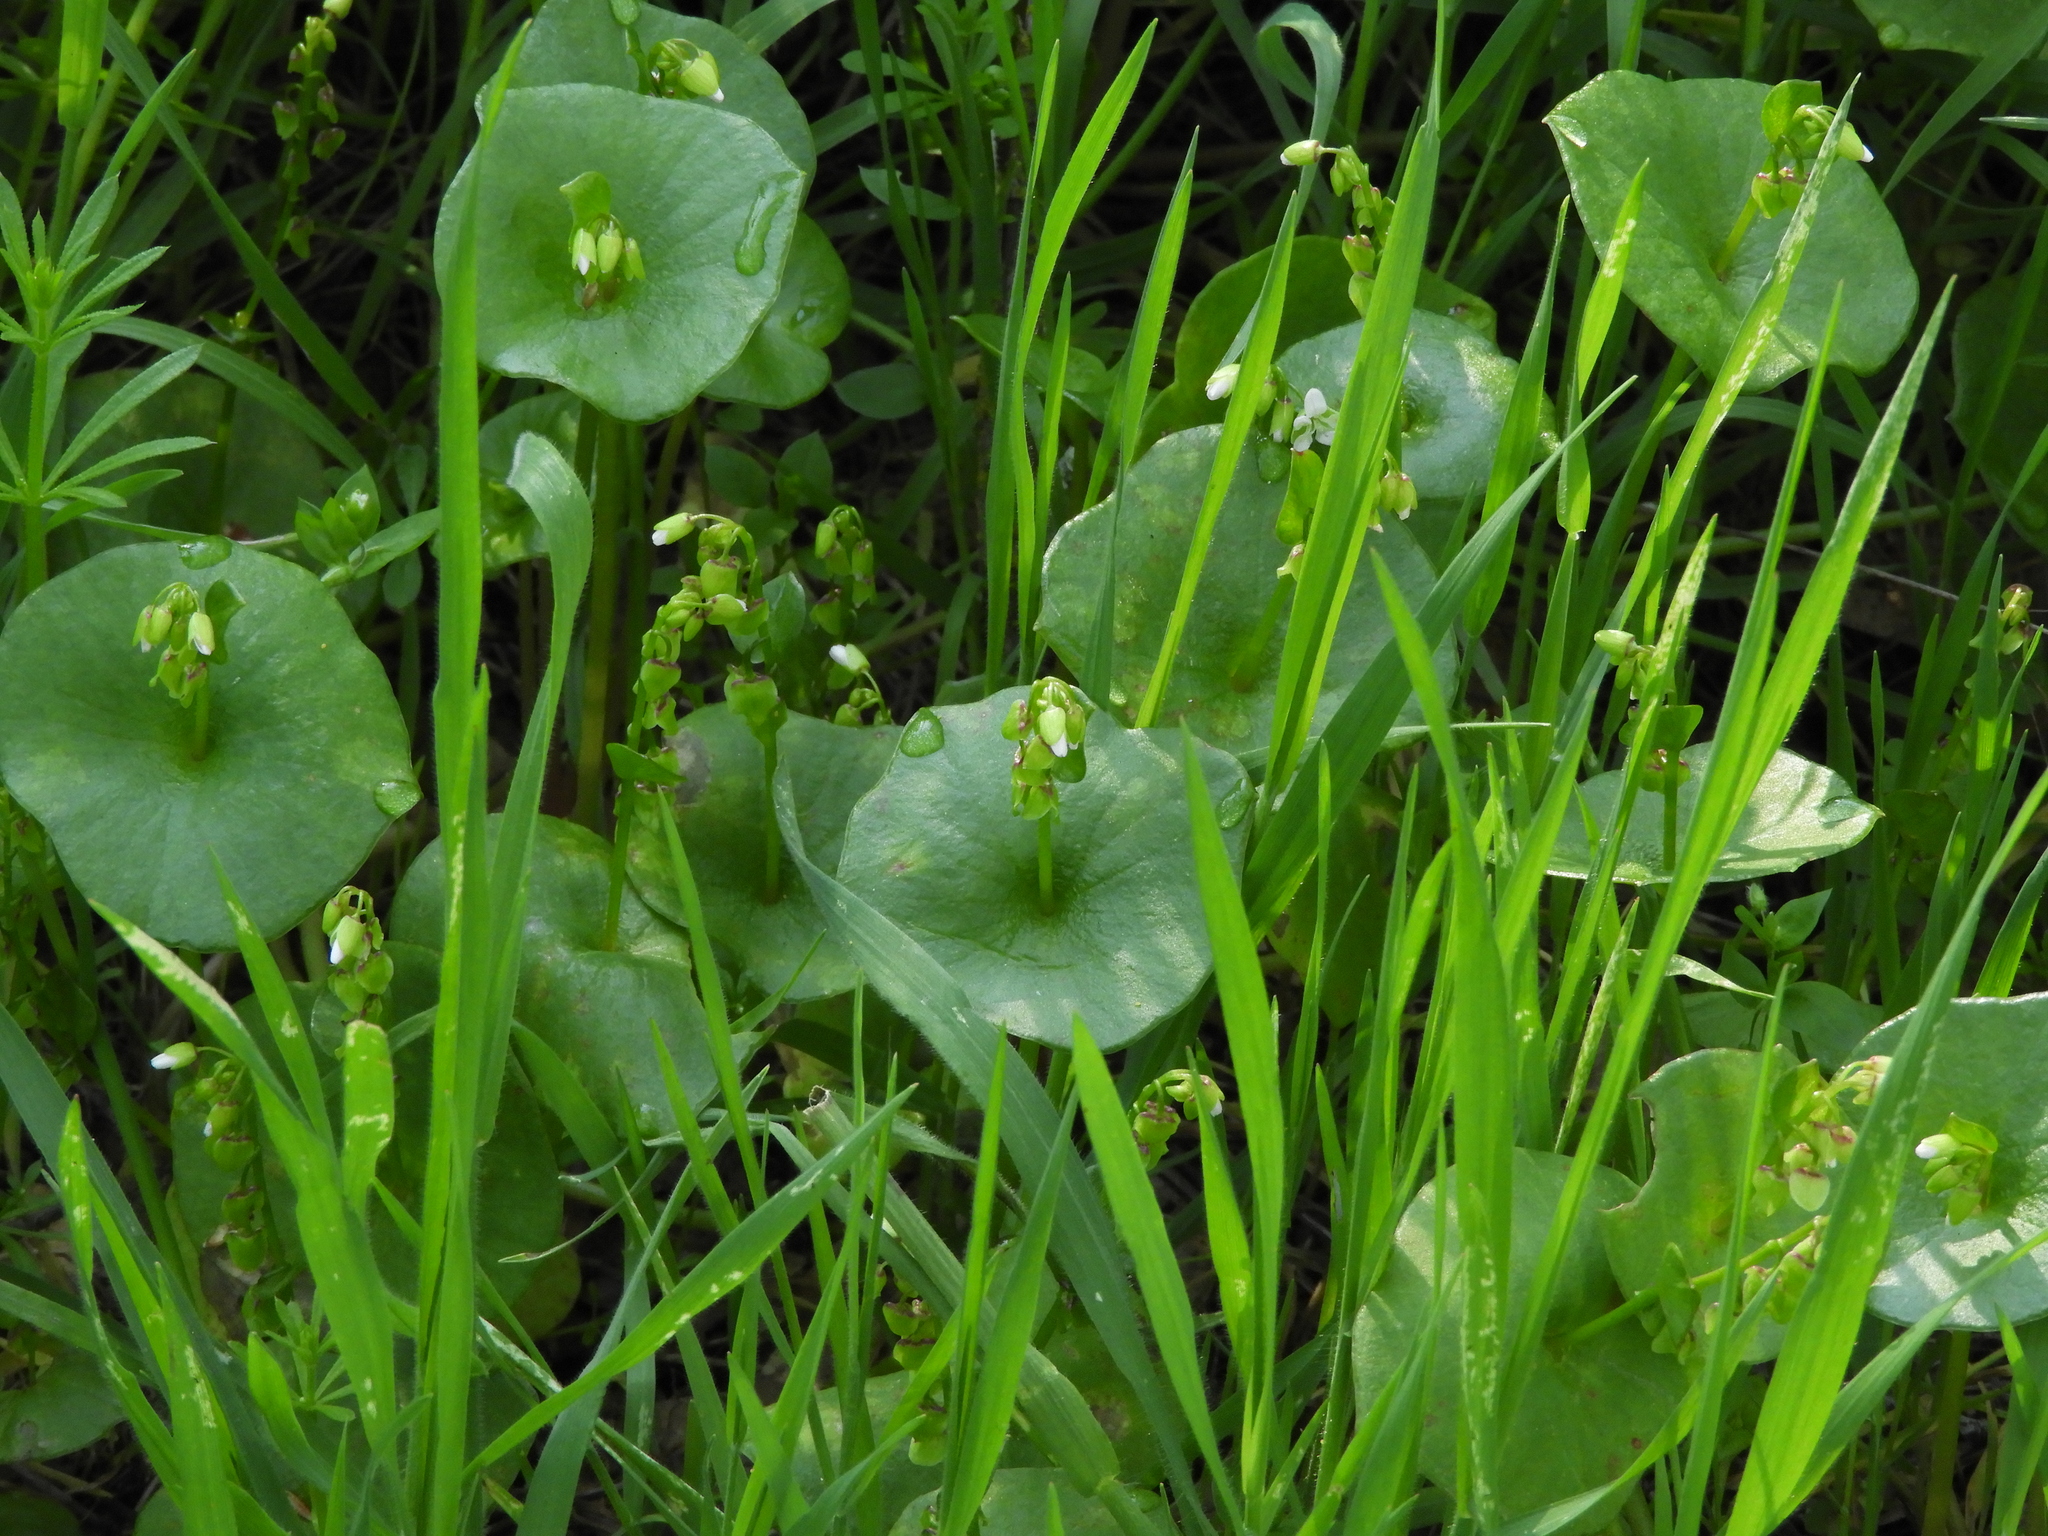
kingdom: Plantae
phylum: Tracheophyta
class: Magnoliopsida
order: Caryophyllales
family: Montiaceae
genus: Claytonia
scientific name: Claytonia perfoliata
